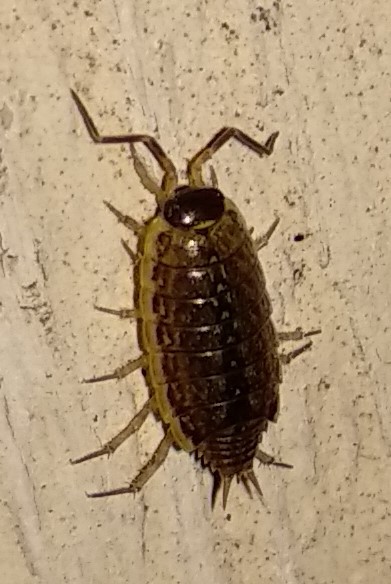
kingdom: Animalia
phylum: Arthropoda
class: Malacostraca
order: Isopoda
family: Philosciidae
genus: Philoscia
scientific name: Philoscia muscorum
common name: Common striped woodlouse
